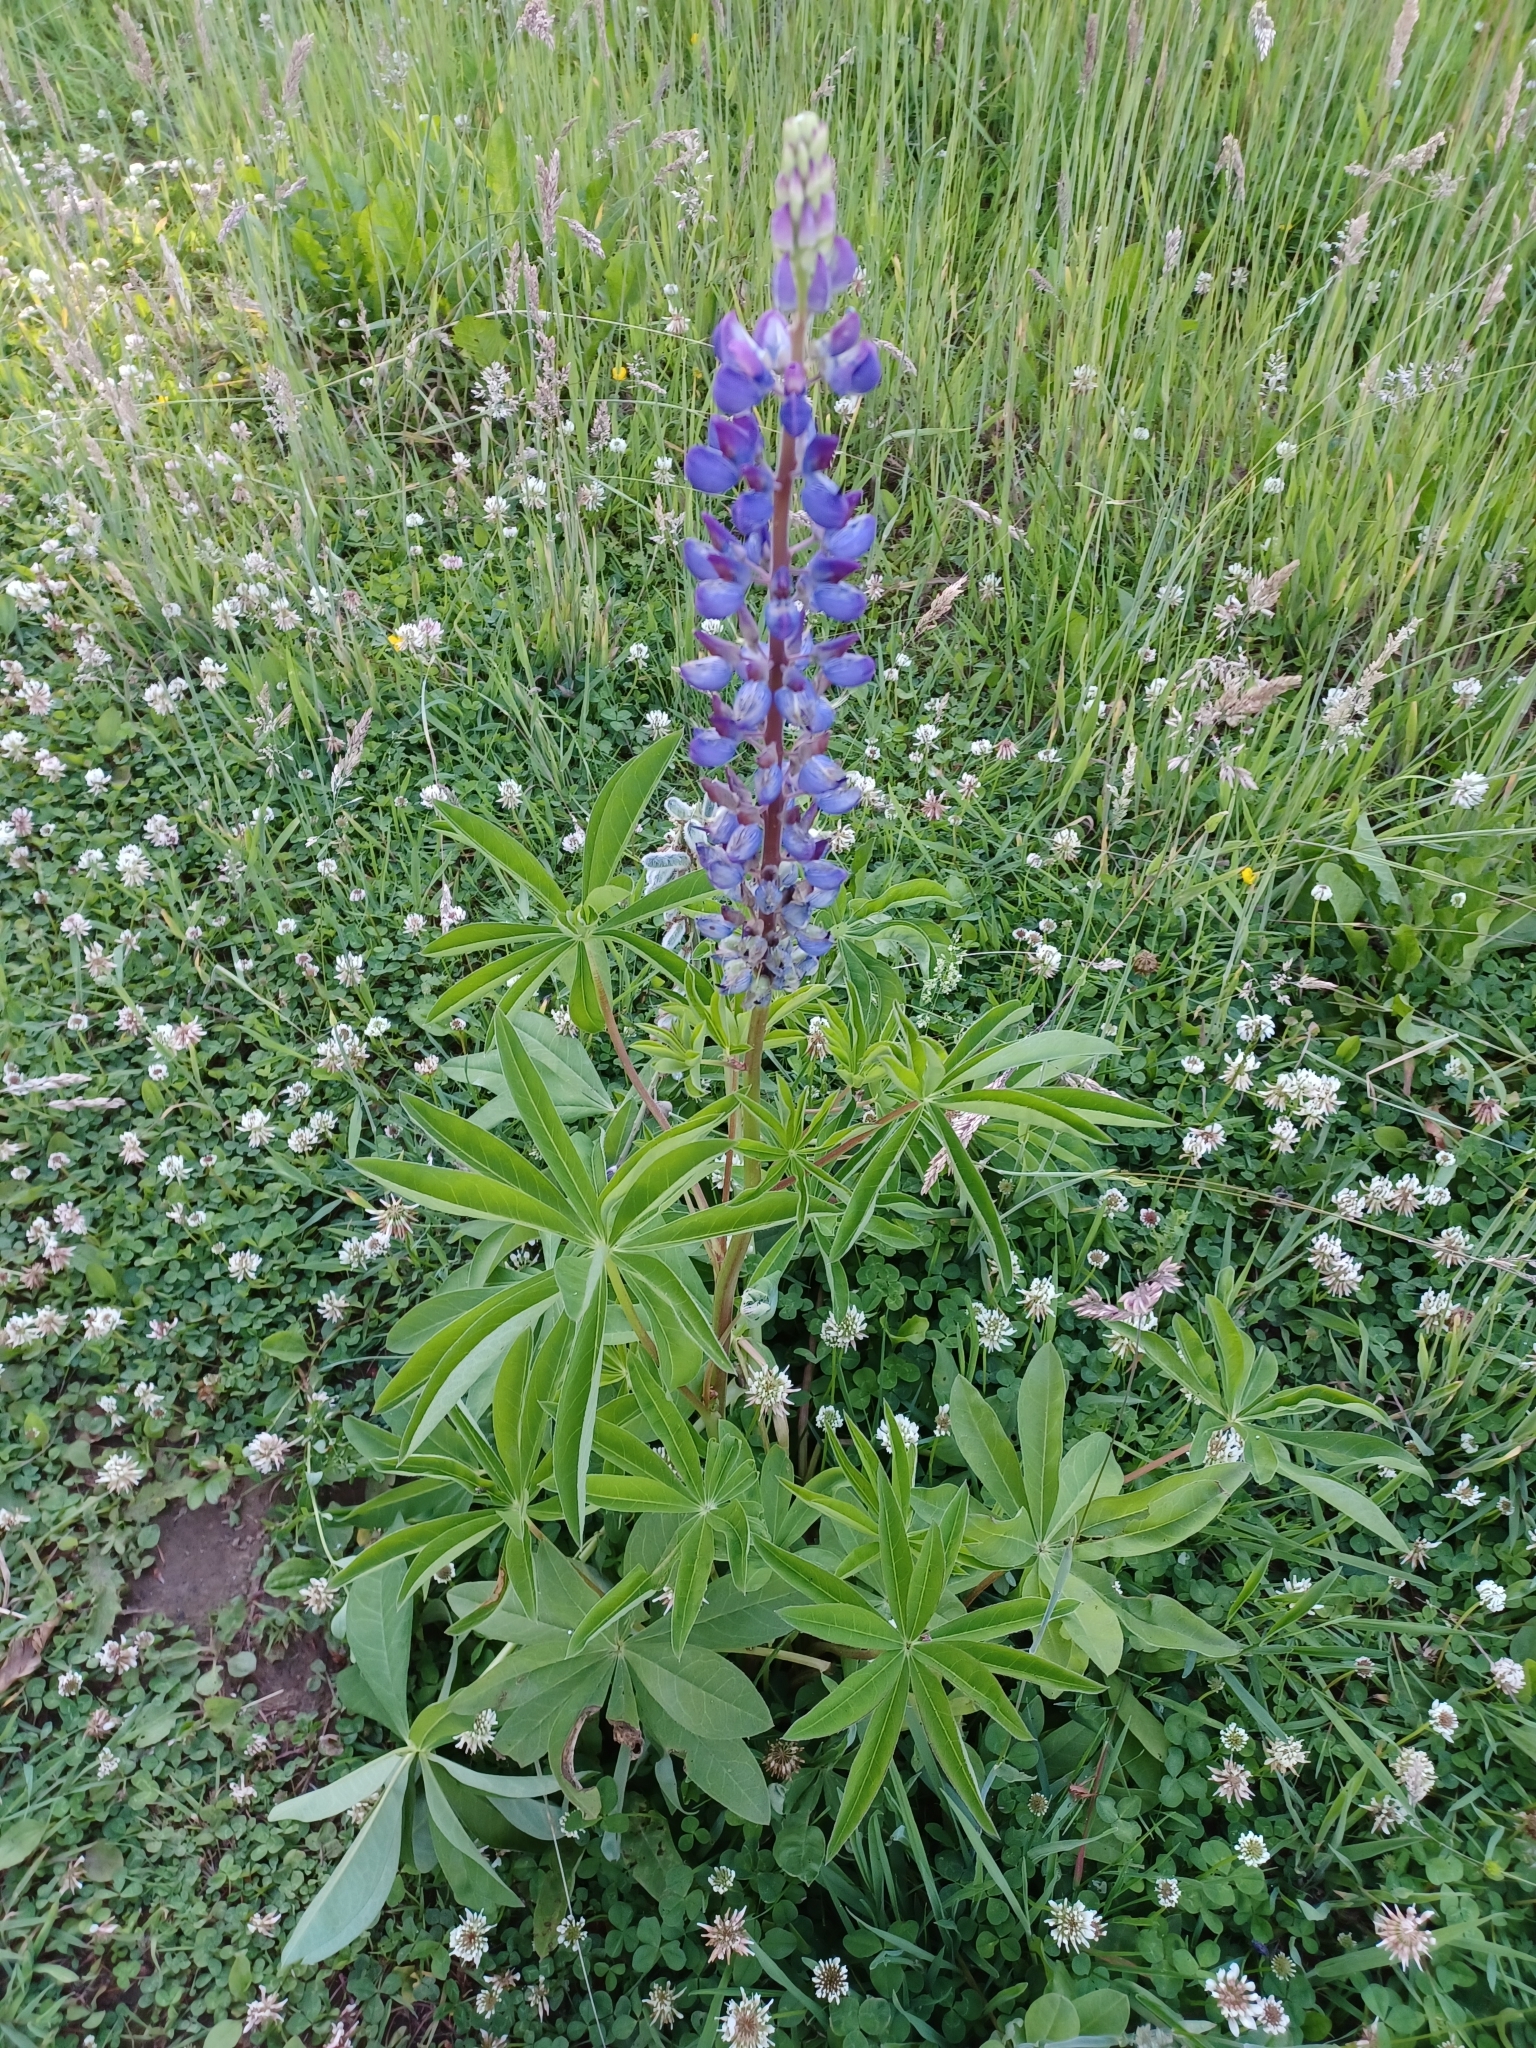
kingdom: Plantae
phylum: Tracheophyta
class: Magnoliopsida
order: Fabales
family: Fabaceae
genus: Lupinus
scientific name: Lupinus polyphyllus
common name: Garden lupin
